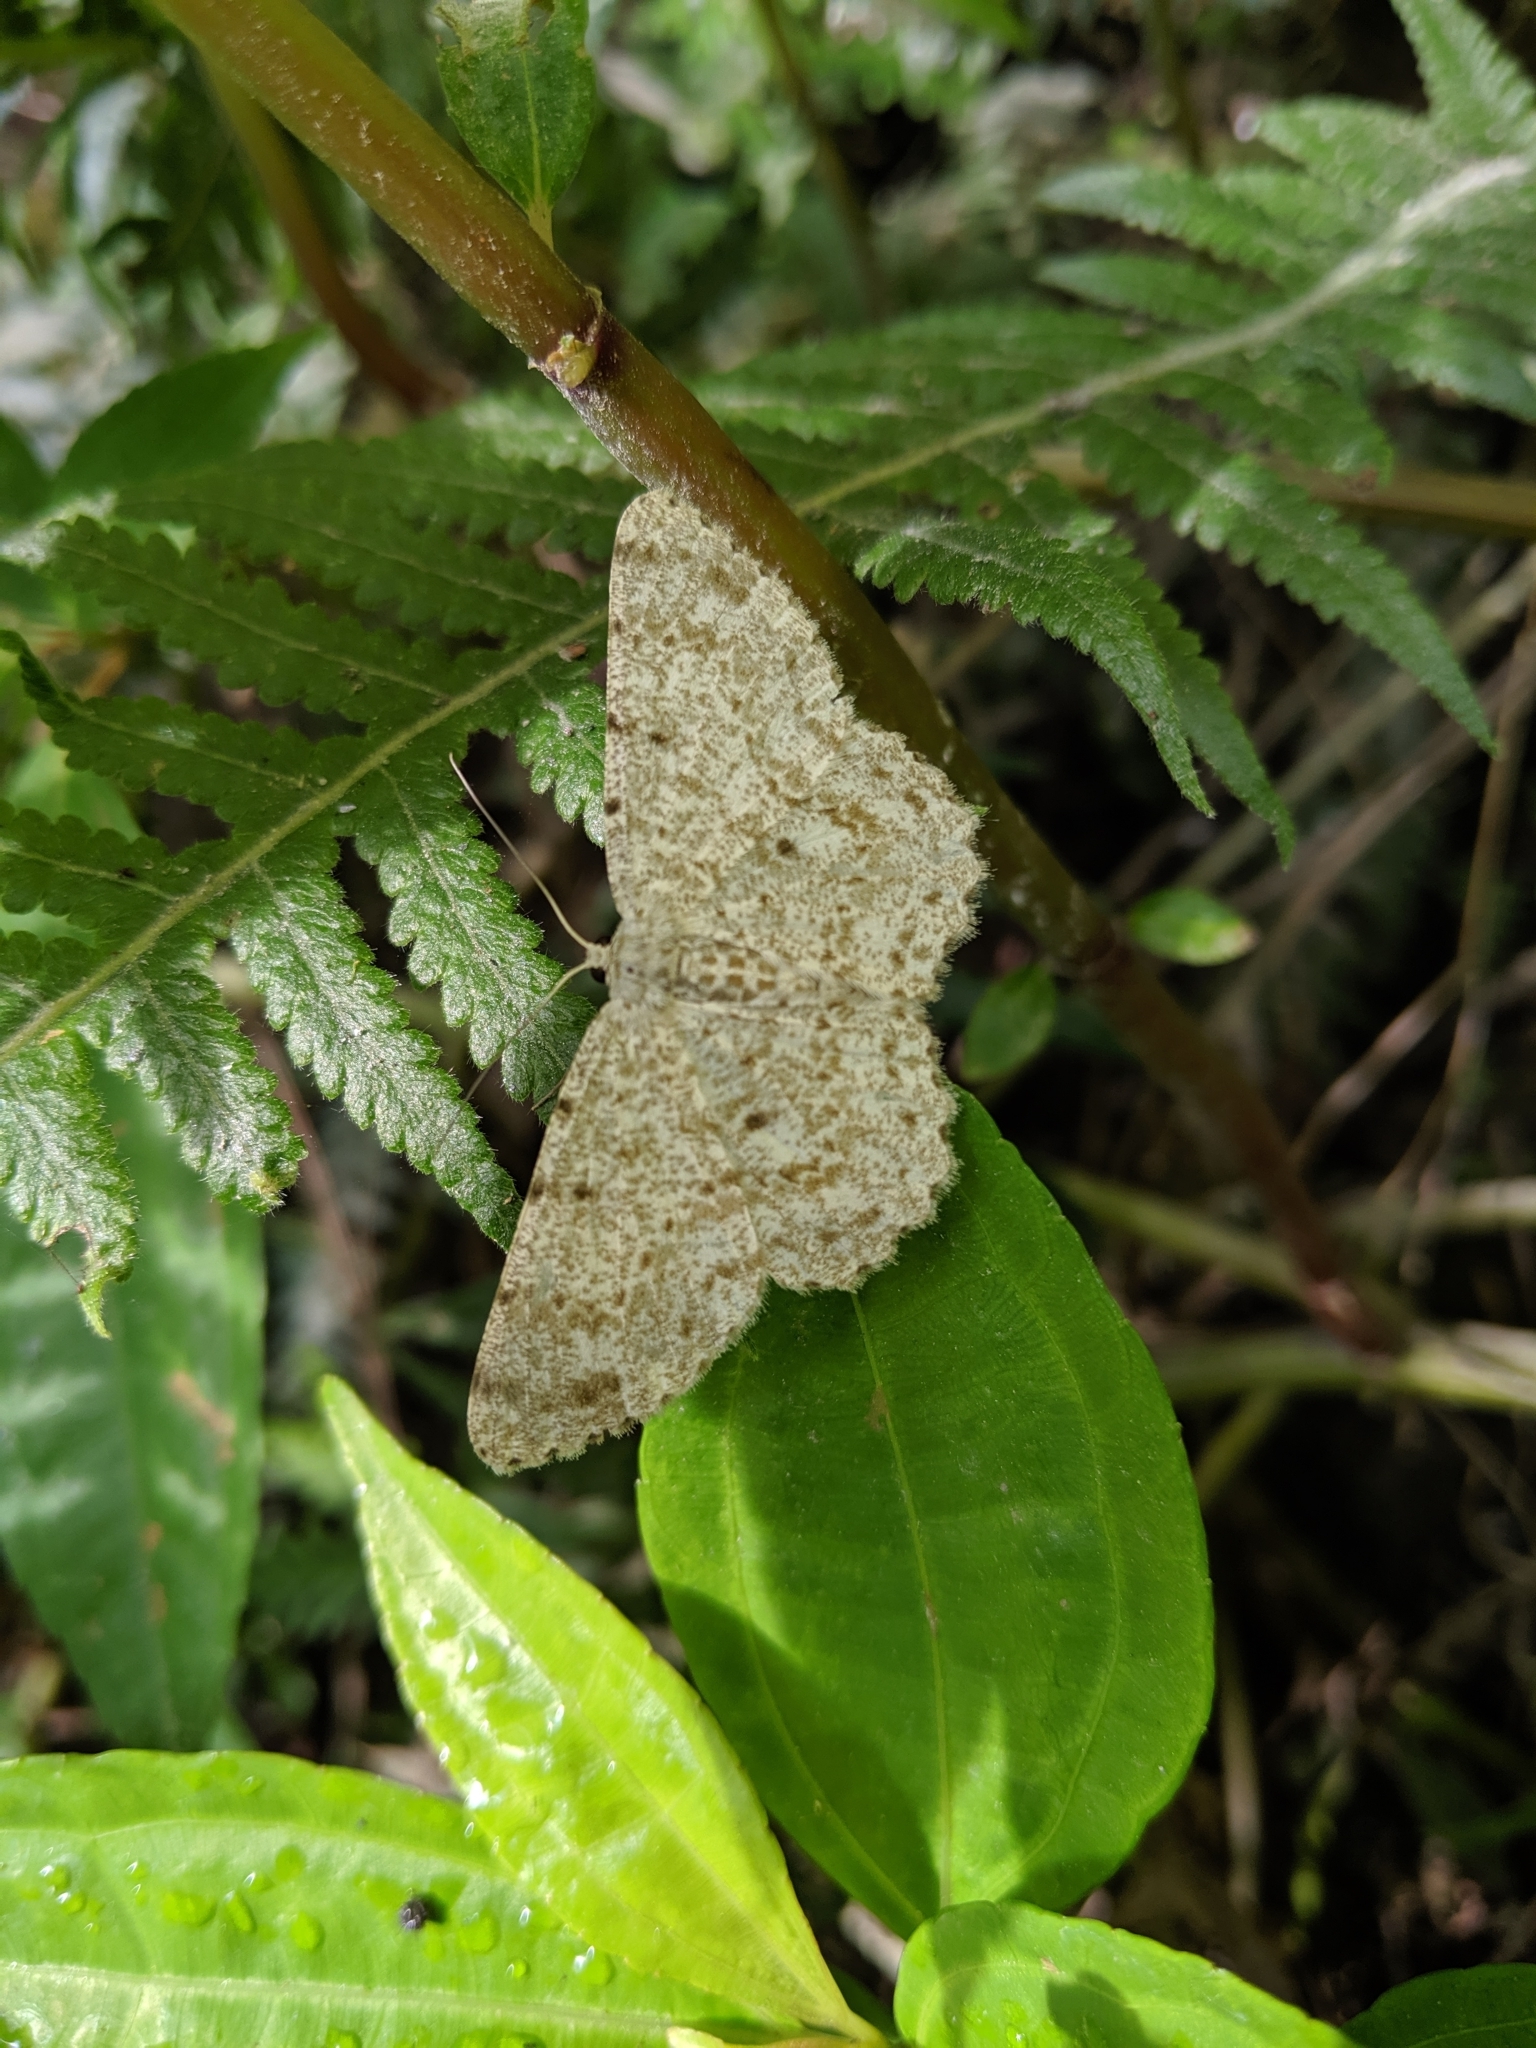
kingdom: Animalia
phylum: Arthropoda
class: Insecta
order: Lepidoptera
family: Geometridae
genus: Catoria
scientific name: Catoria sublavaria
